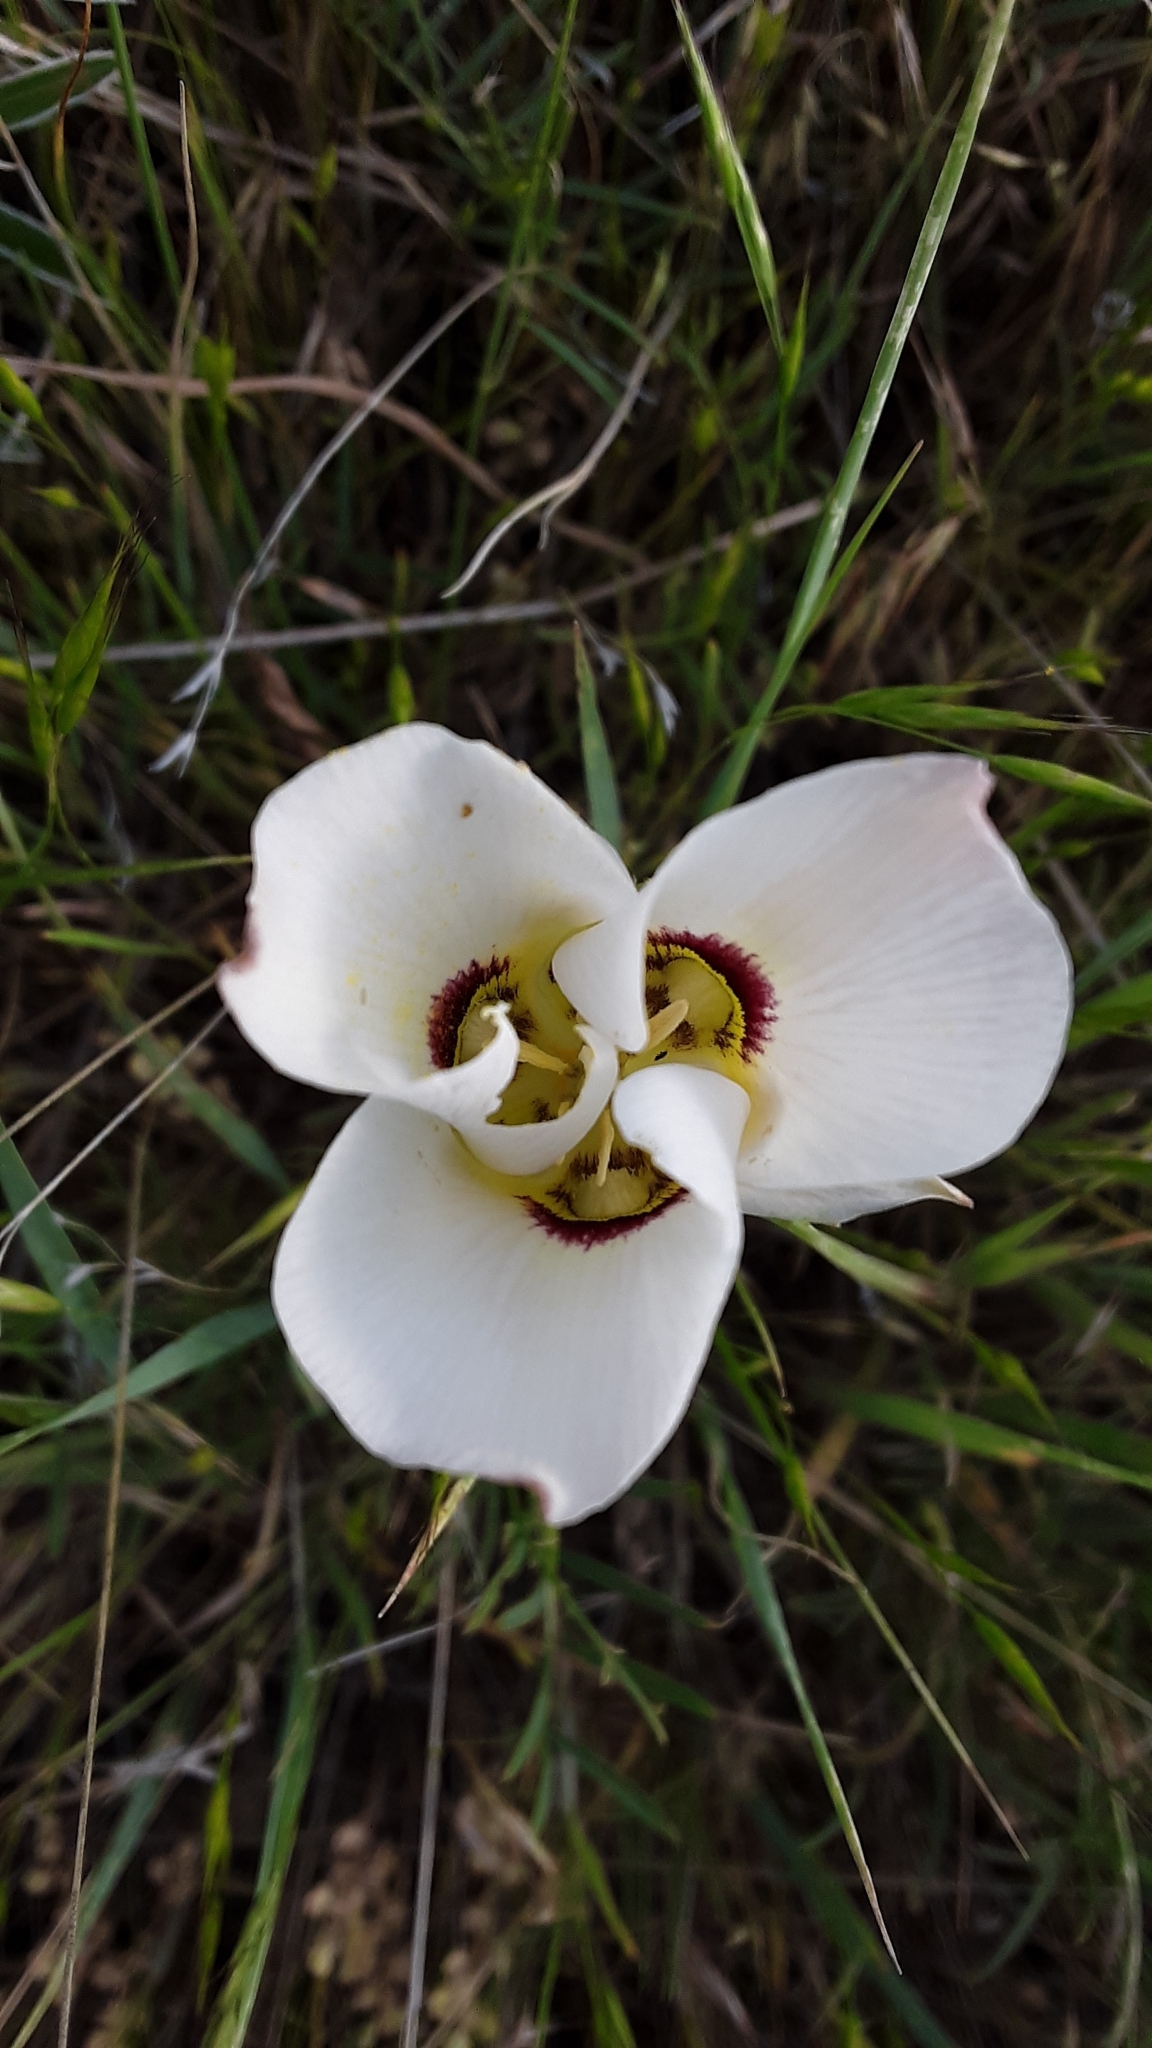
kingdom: Plantae
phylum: Tracheophyta
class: Liliopsida
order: Liliales
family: Liliaceae
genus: Calochortus
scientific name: Calochortus nuttallii
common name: Sego-lily
